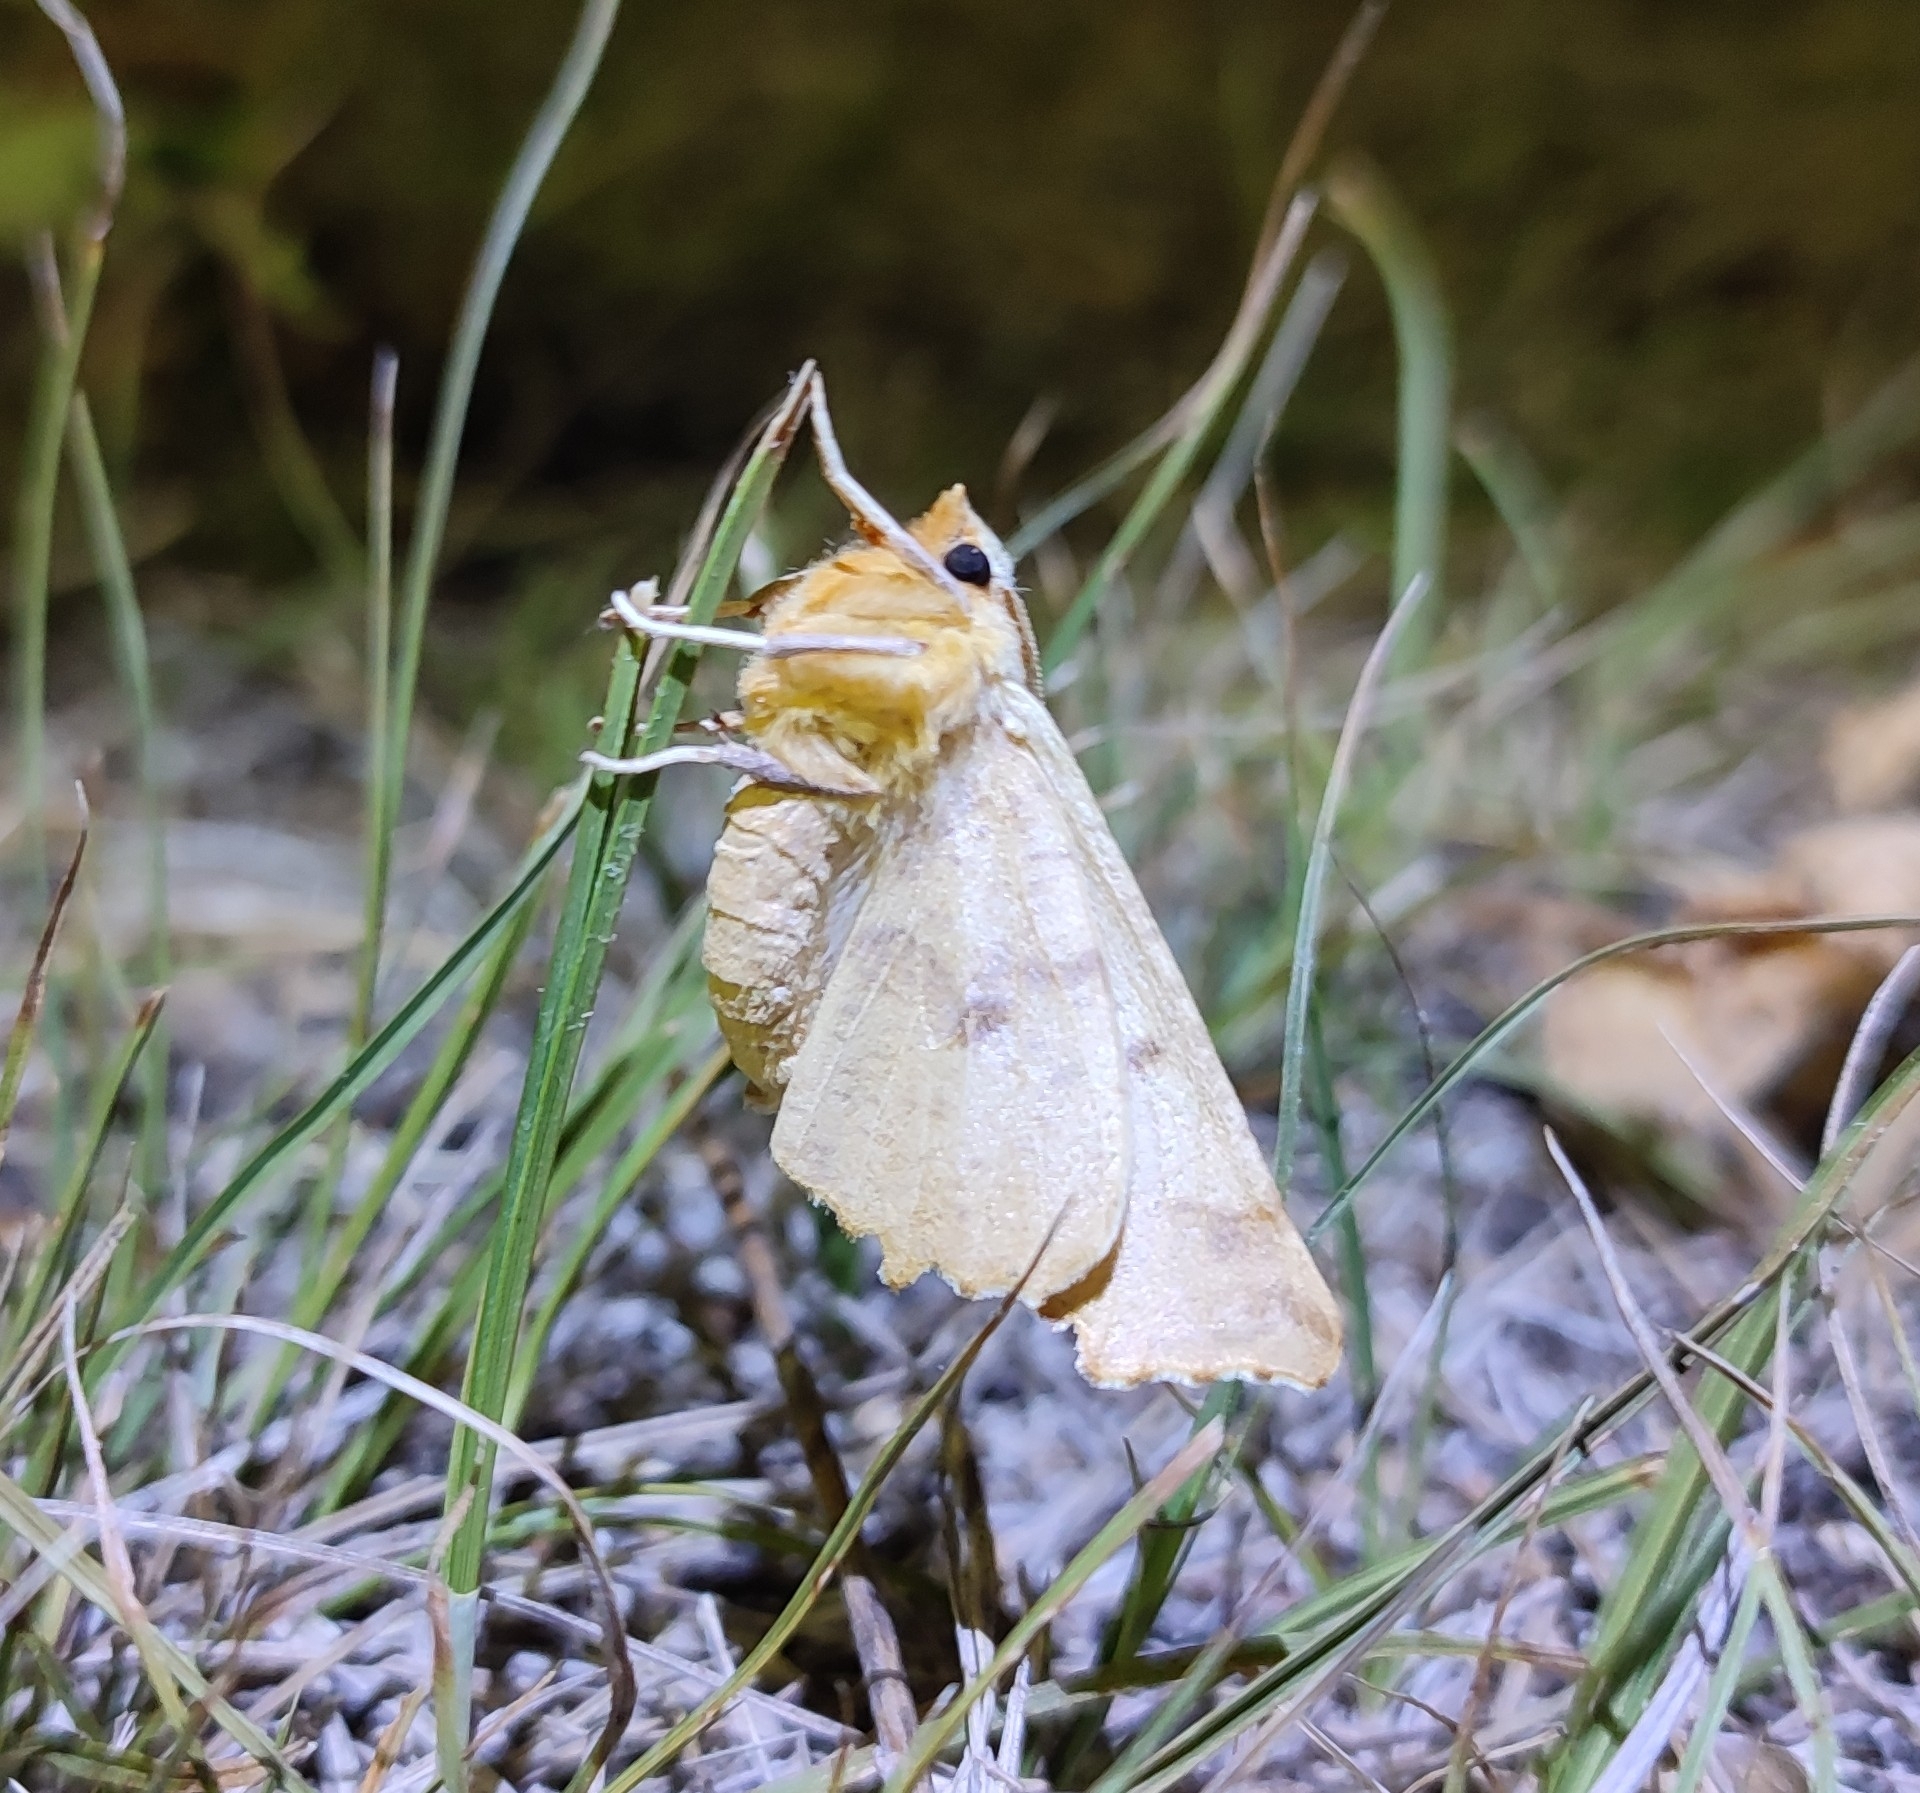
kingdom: Animalia
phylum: Arthropoda
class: Insecta
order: Lepidoptera
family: Geometridae
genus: Ennomos
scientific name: Ennomos autumnaria
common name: Large thorn
